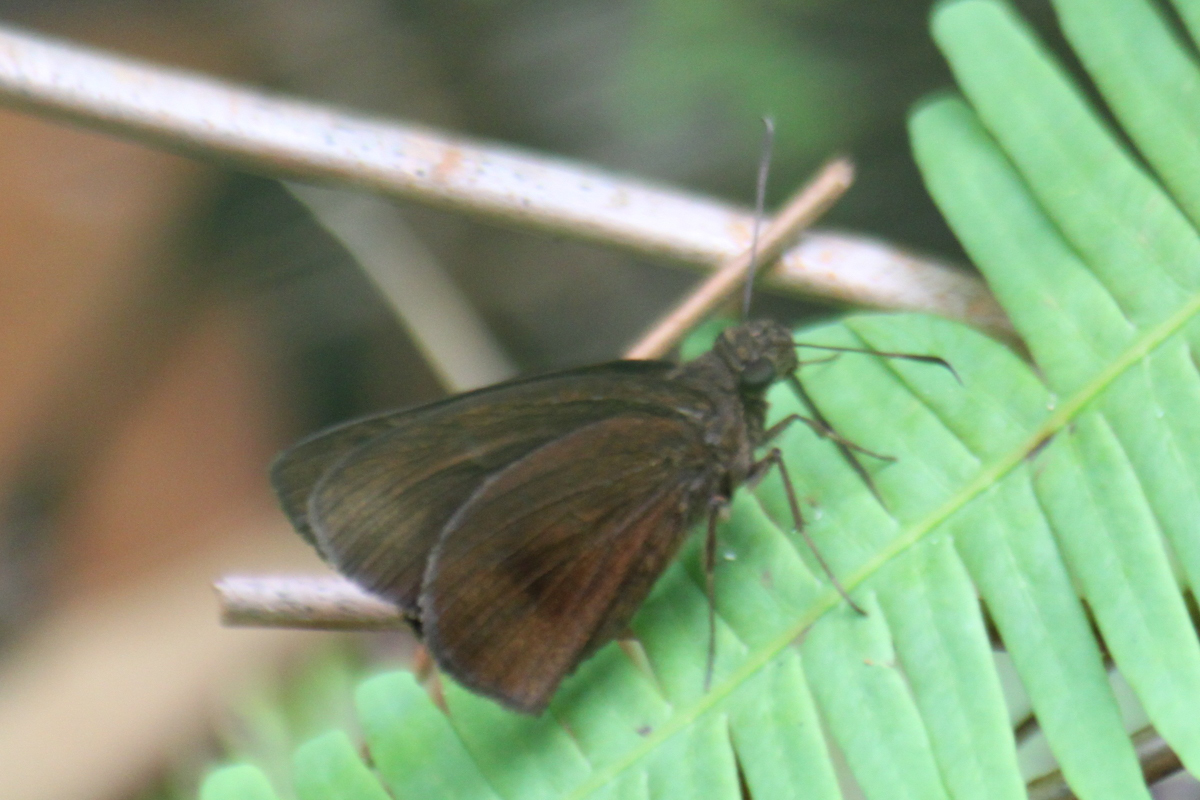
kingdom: Animalia
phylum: Arthropoda
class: Insecta
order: Lepidoptera
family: Hesperiidae
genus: Ancistroides
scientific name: Ancistroides nigrita
